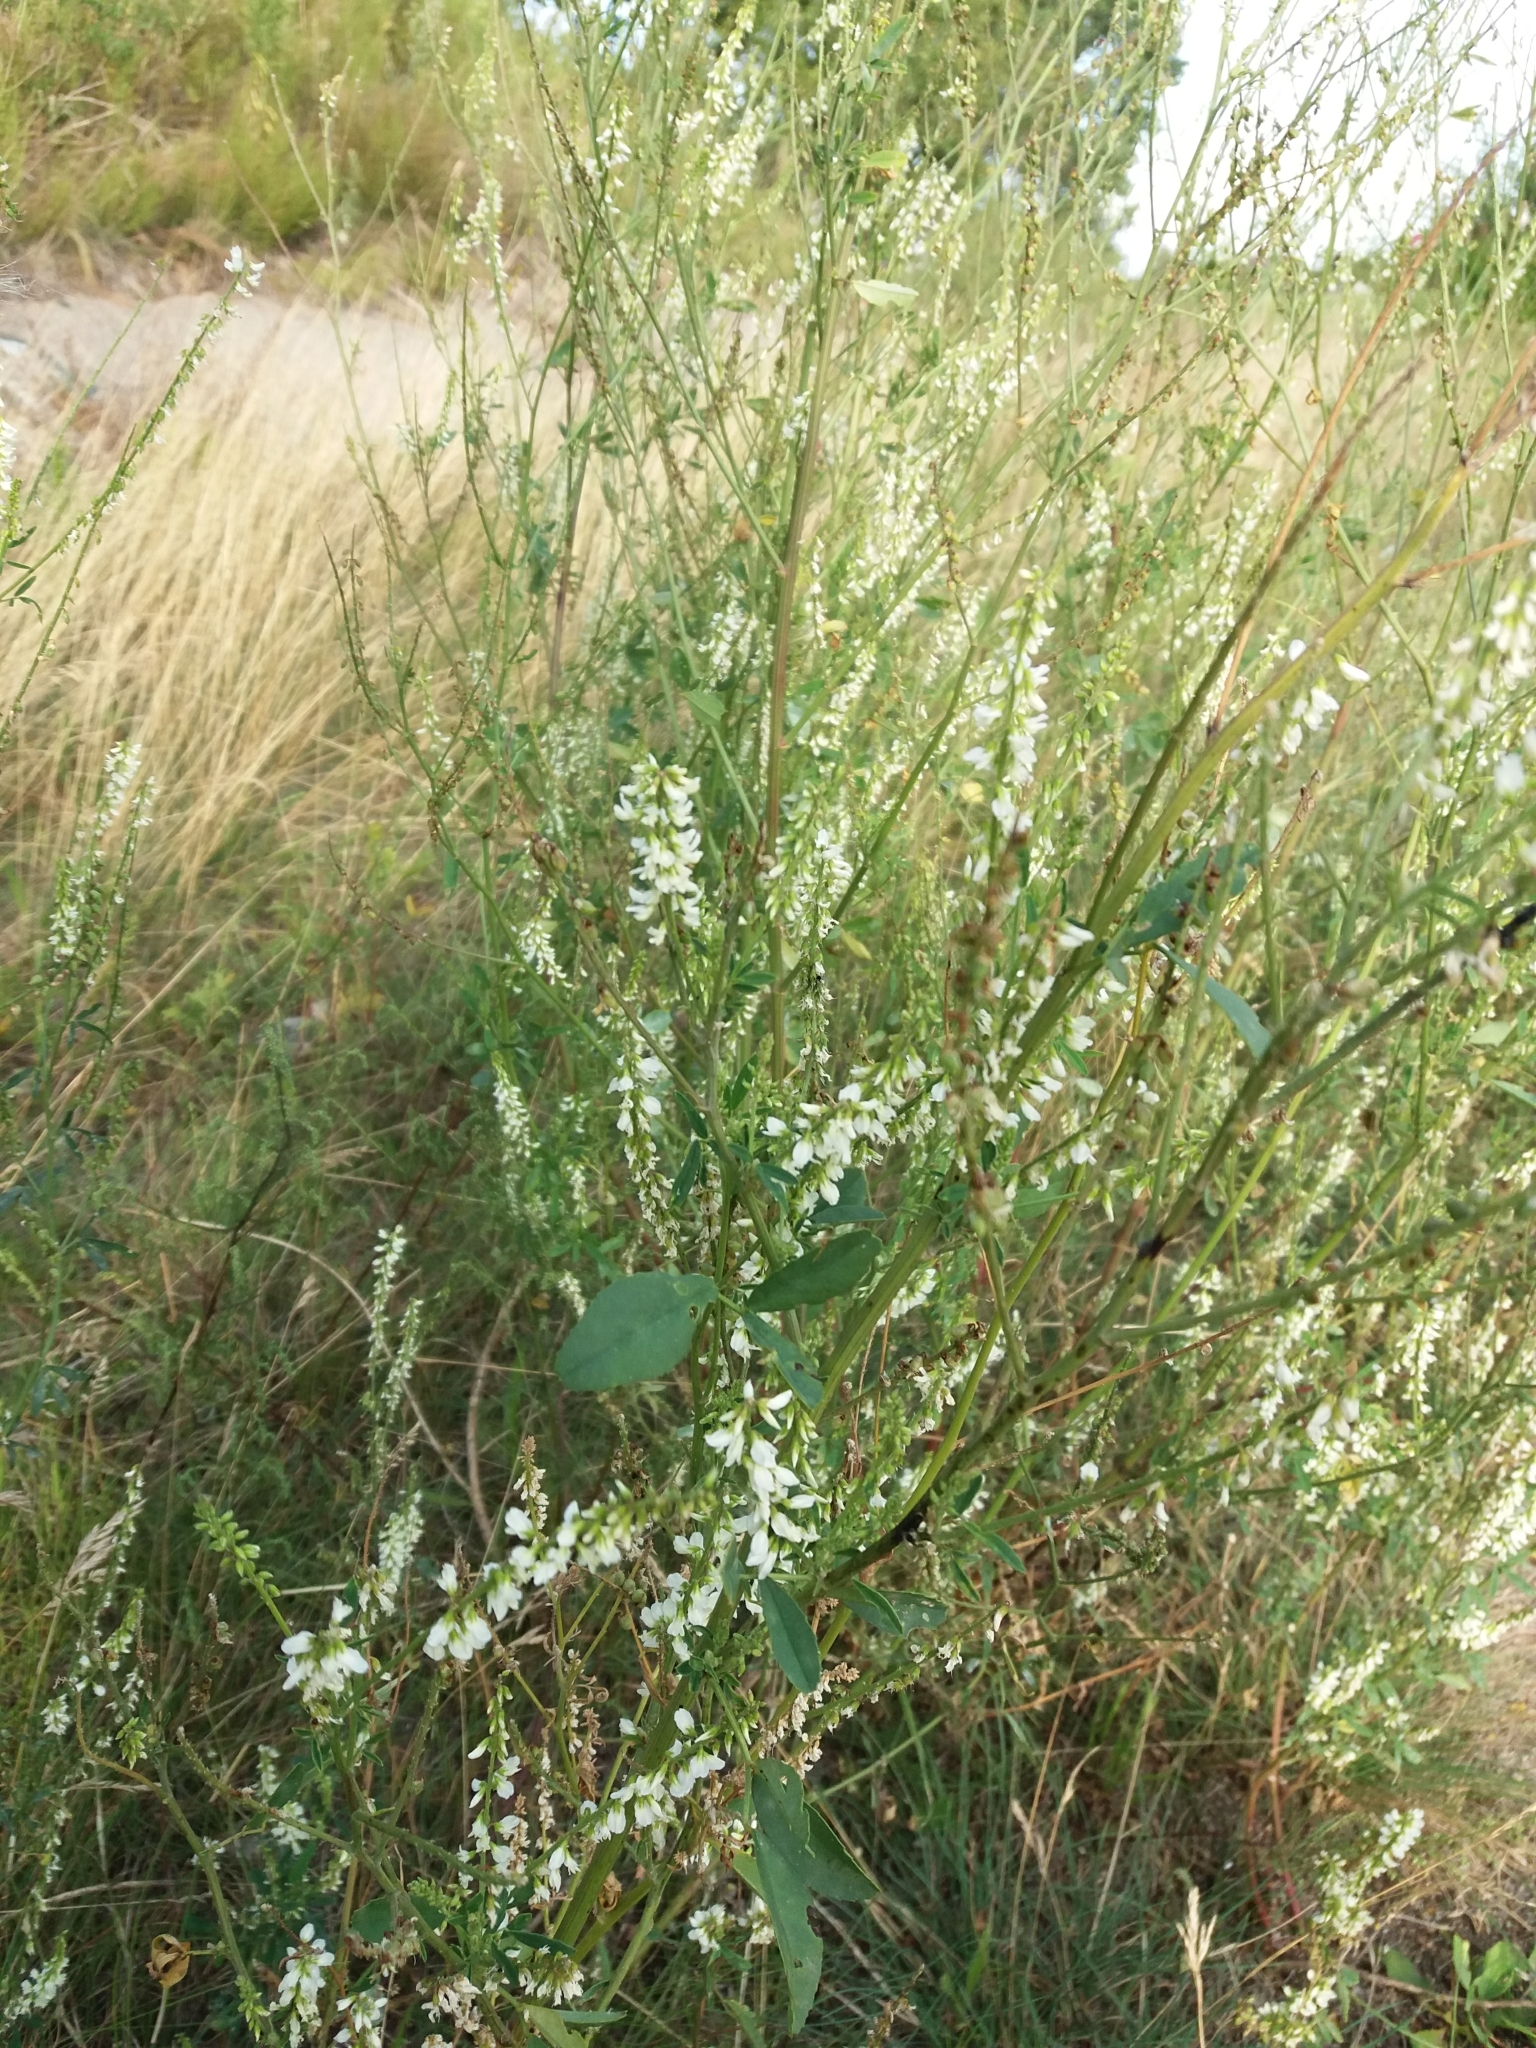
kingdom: Plantae
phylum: Tracheophyta
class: Magnoliopsida
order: Fabales
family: Fabaceae
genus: Melilotus
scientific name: Melilotus albus
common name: White melilot
